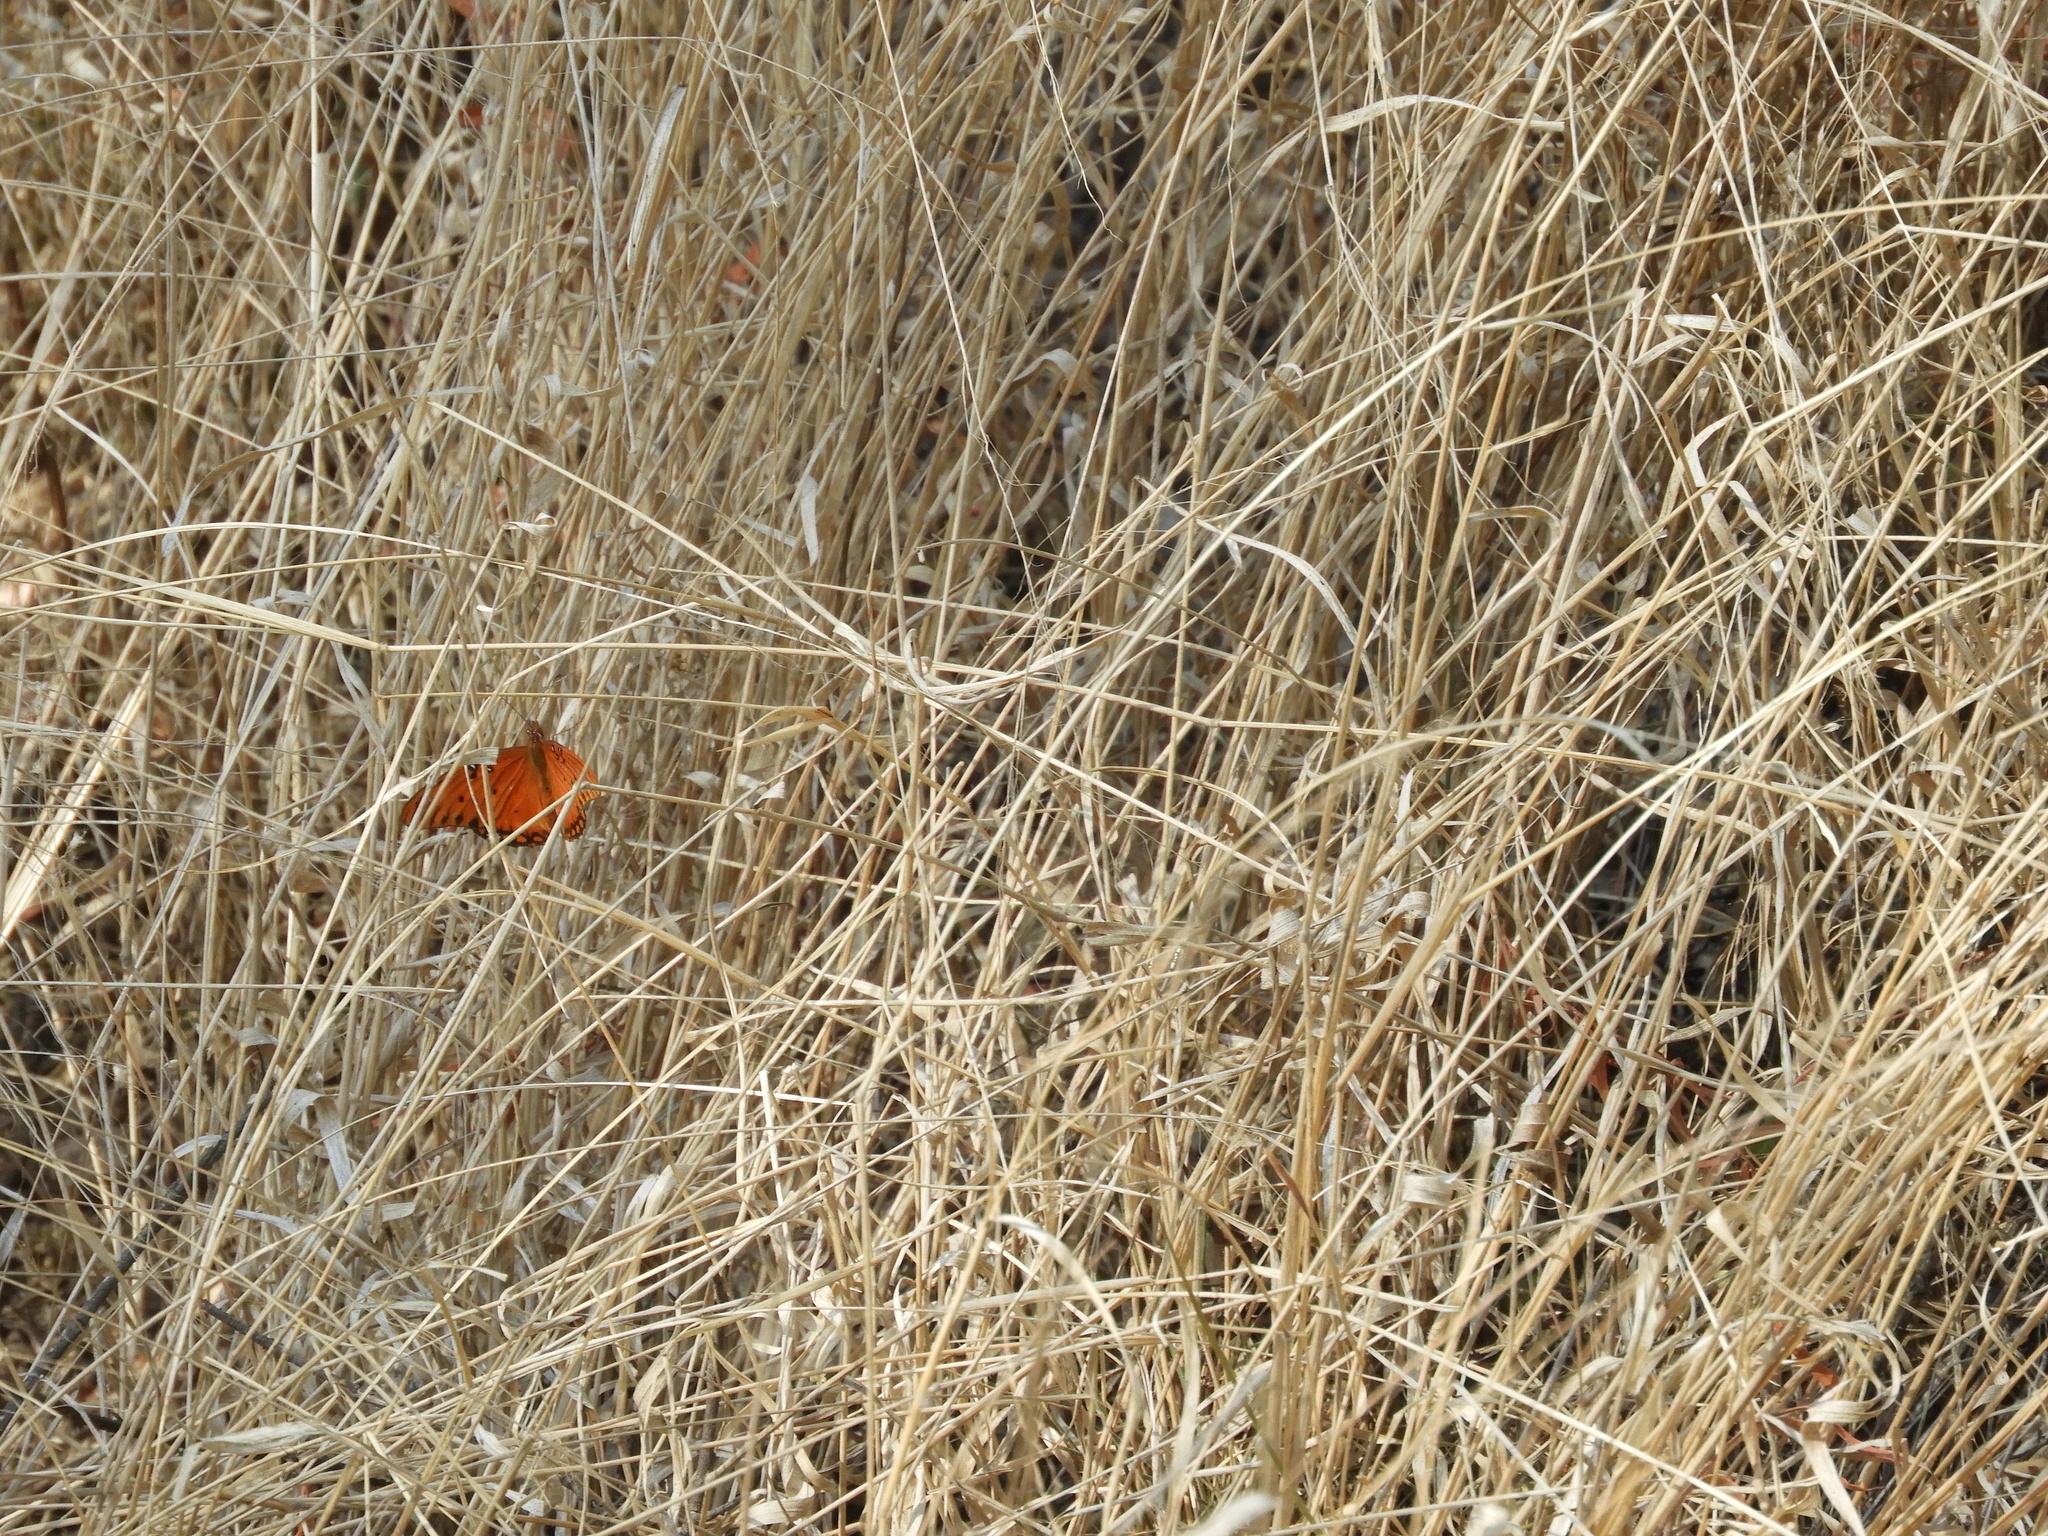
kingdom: Animalia
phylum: Arthropoda
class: Insecta
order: Lepidoptera
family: Nymphalidae
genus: Dione
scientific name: Dione vanillae
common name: Gulf fritillary
